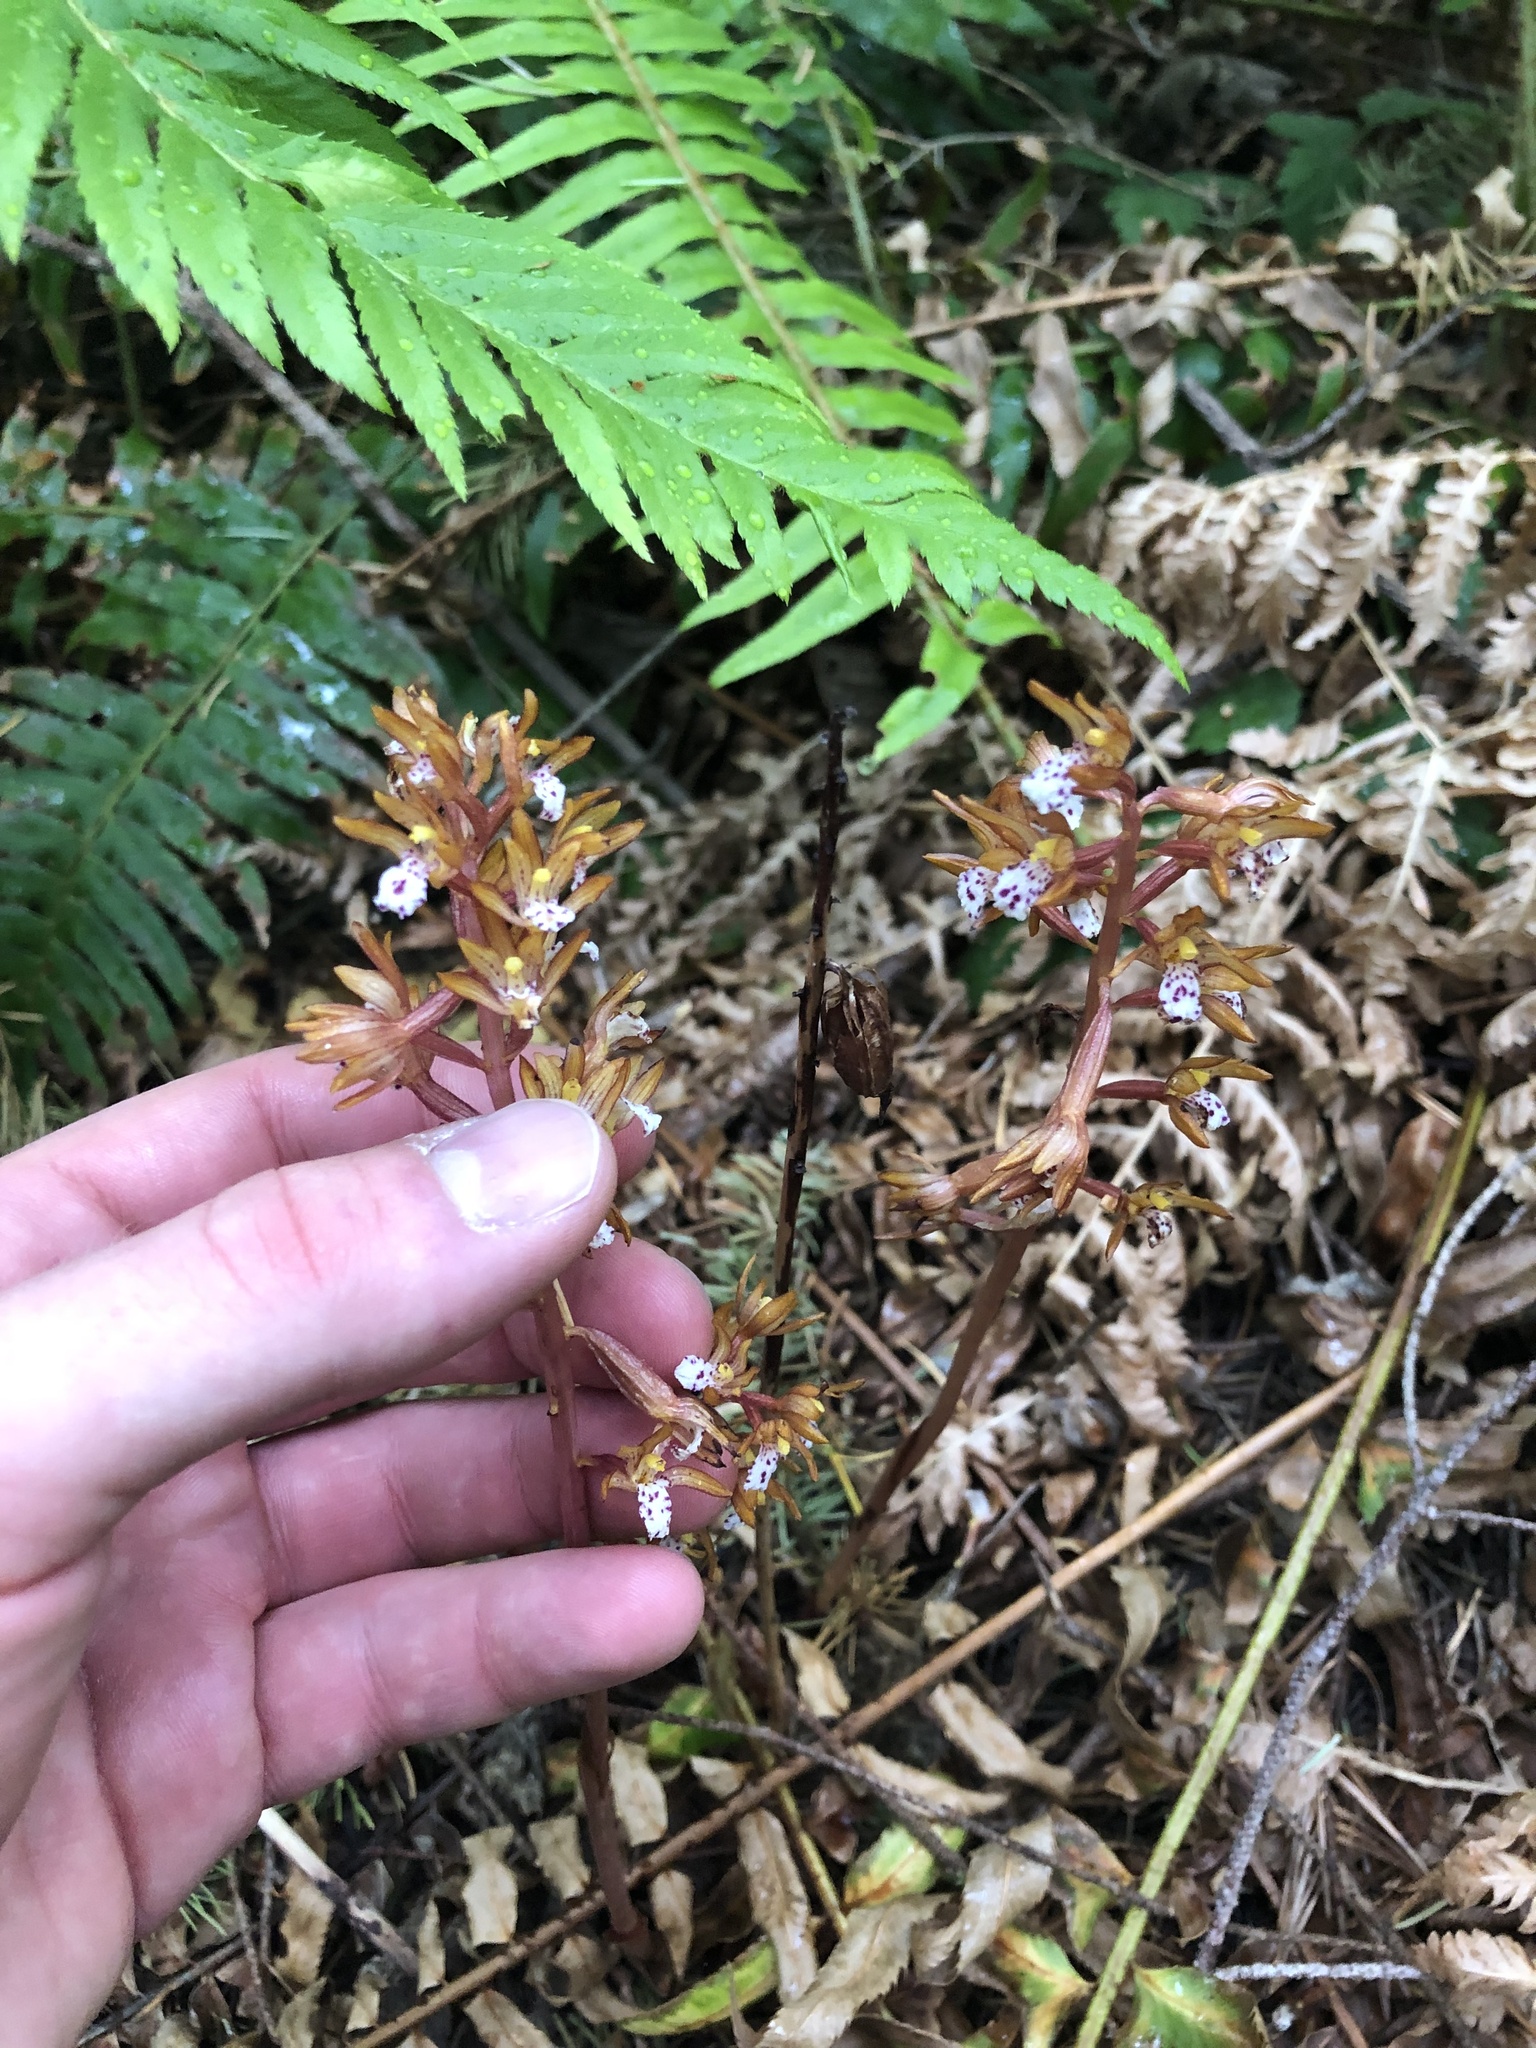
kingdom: Plantae
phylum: Tracheophyta
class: Liliopsida
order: Asparagales
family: Orchidaceae
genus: Corallorhiza
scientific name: Corallorhiza maculata
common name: Spotted coralroot
